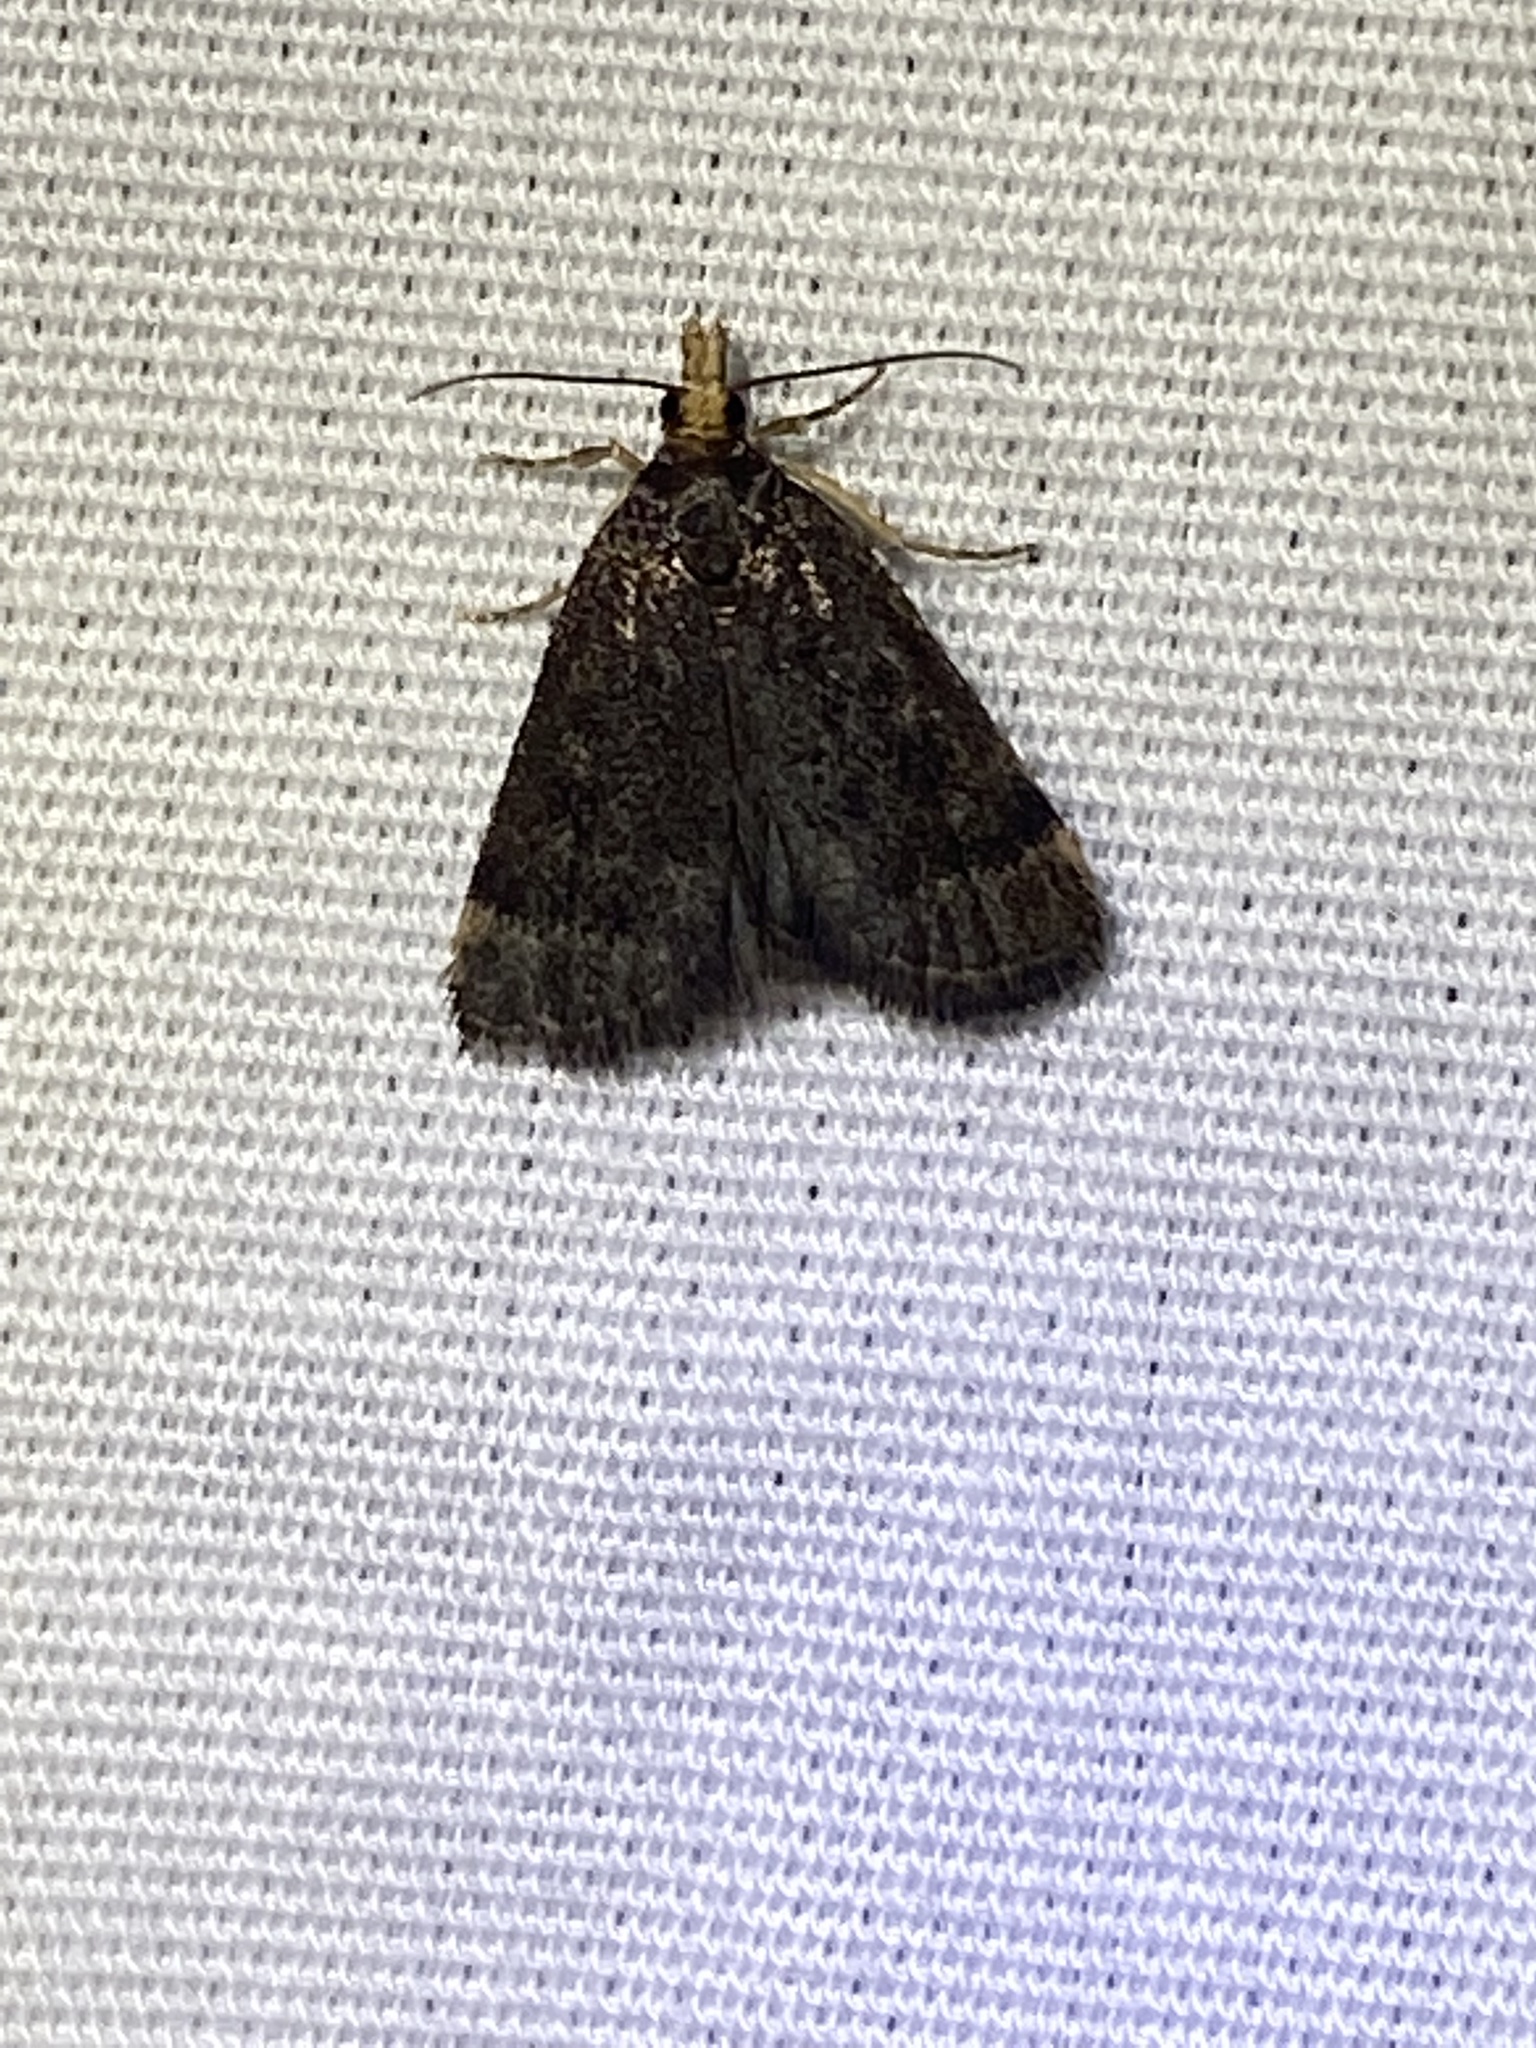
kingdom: Animalia
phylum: Arthropoda
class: Insecta
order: Lepidoptera
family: Crambidae
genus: Pyrausta
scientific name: Pyrausta merrickalis
